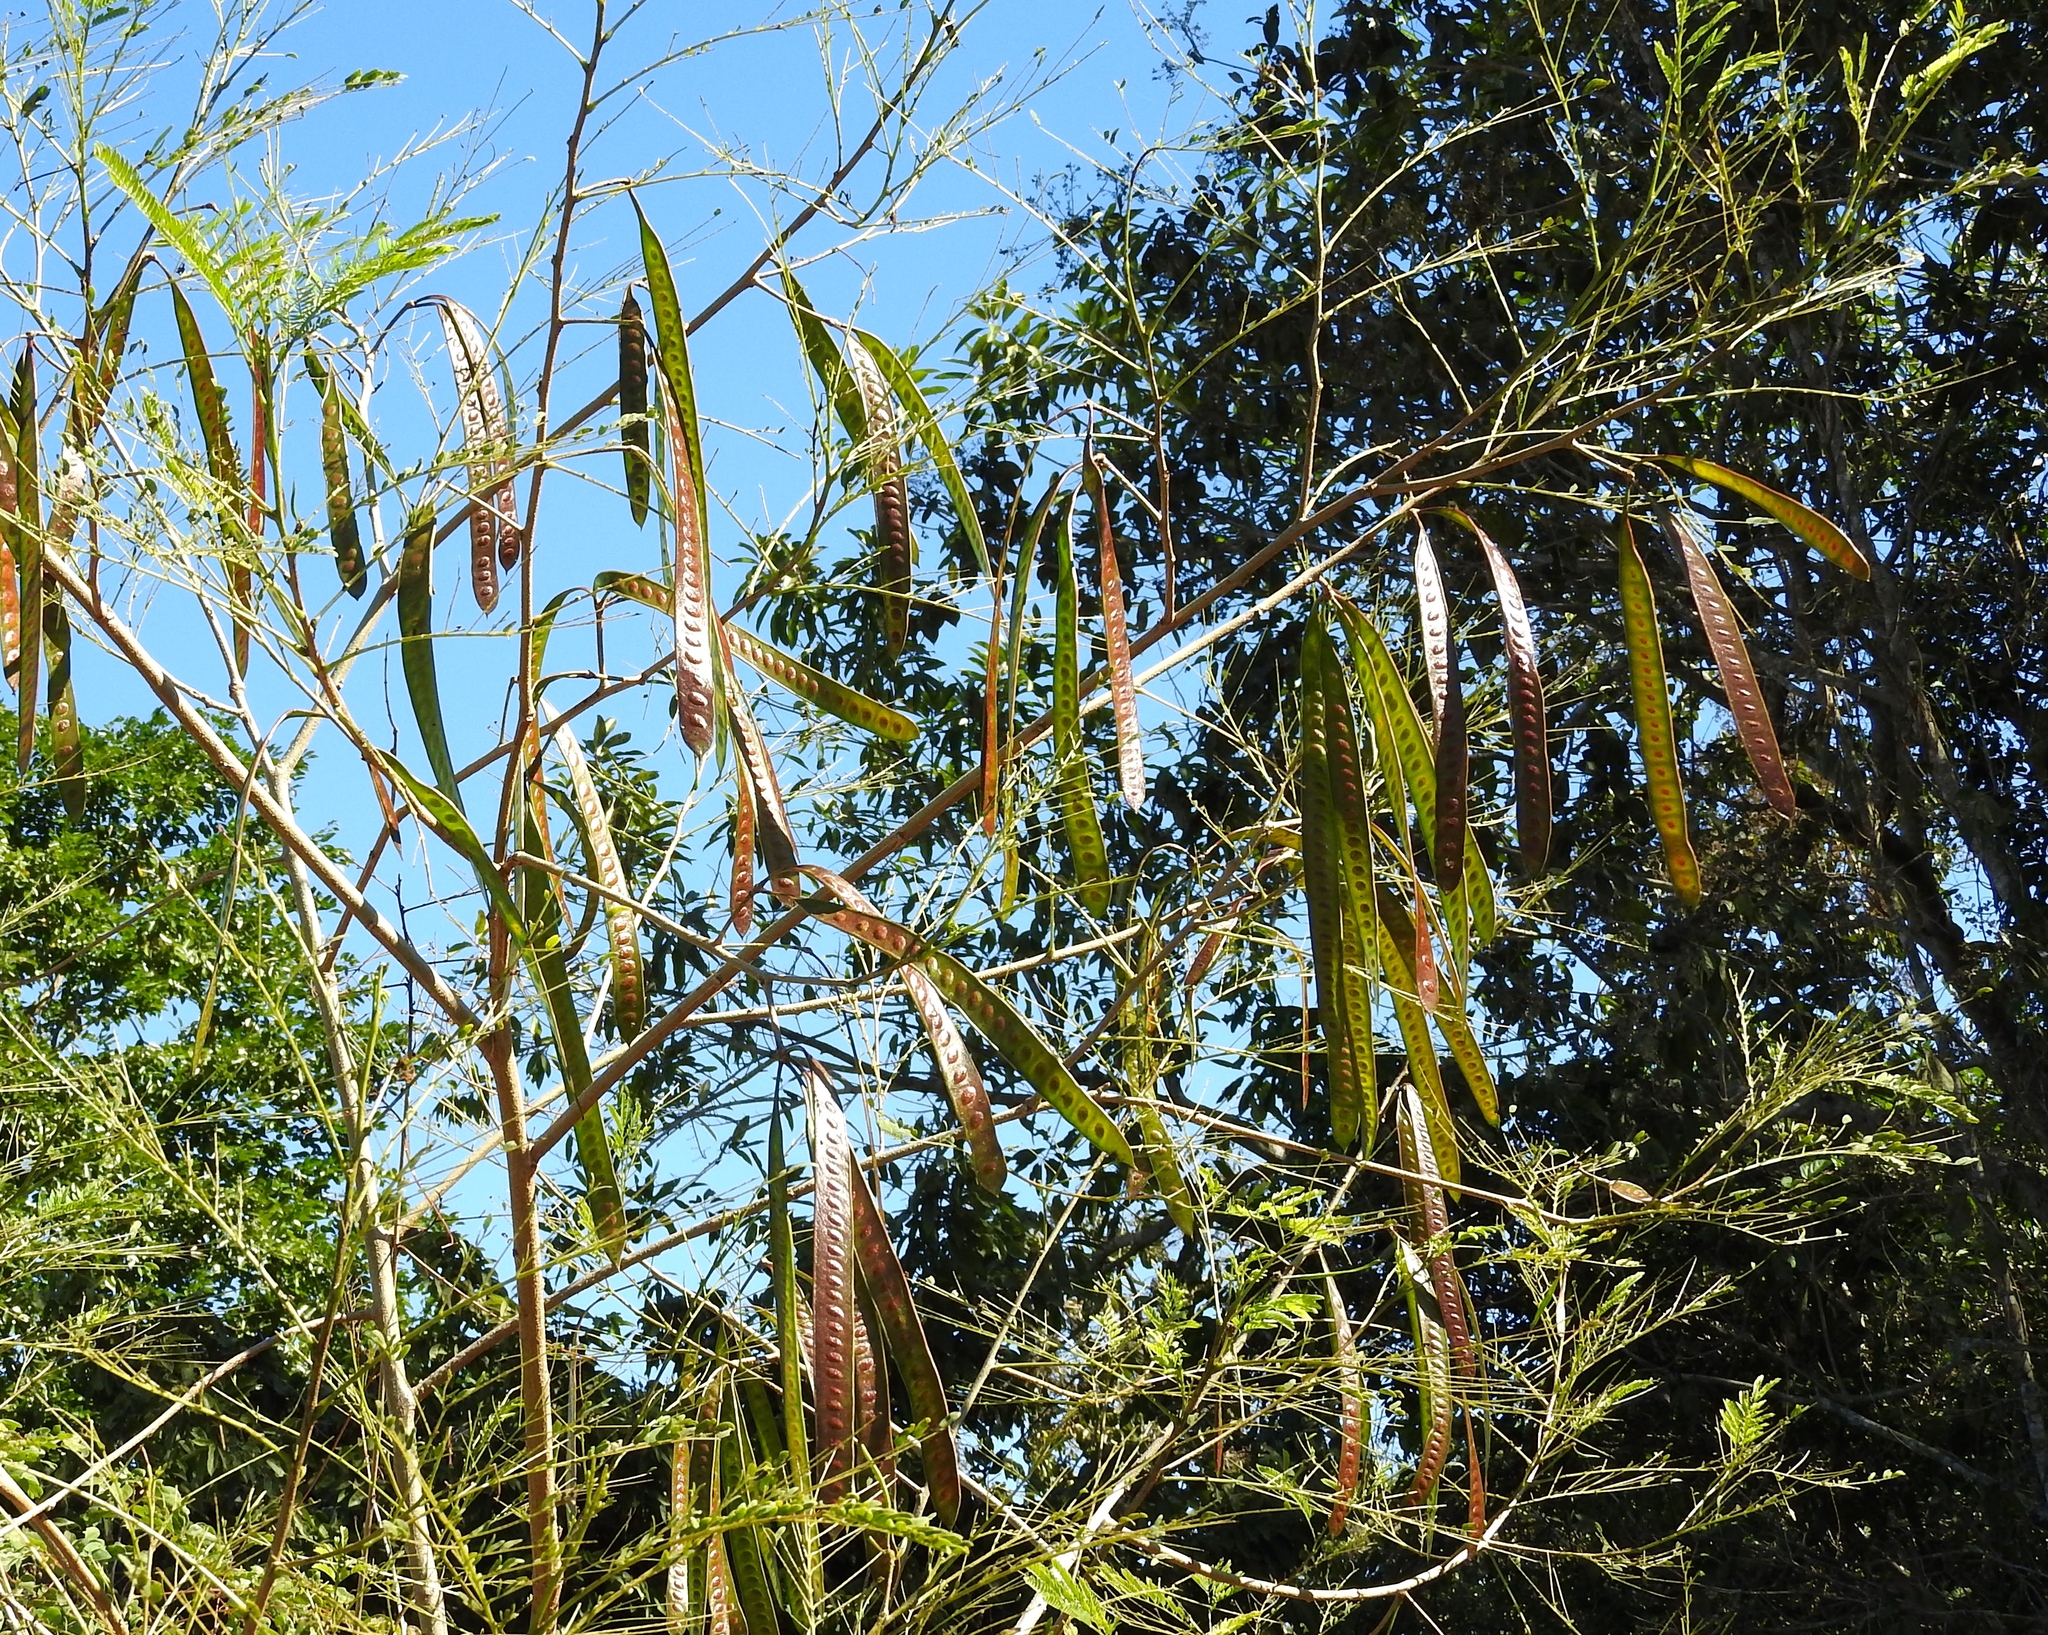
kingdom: Plantae
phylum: Tracheophyta
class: Magnoliopsida
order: Fabales
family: Fabaceae
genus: Leucaena
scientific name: Leucaena leucocephala
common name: White leadtree
